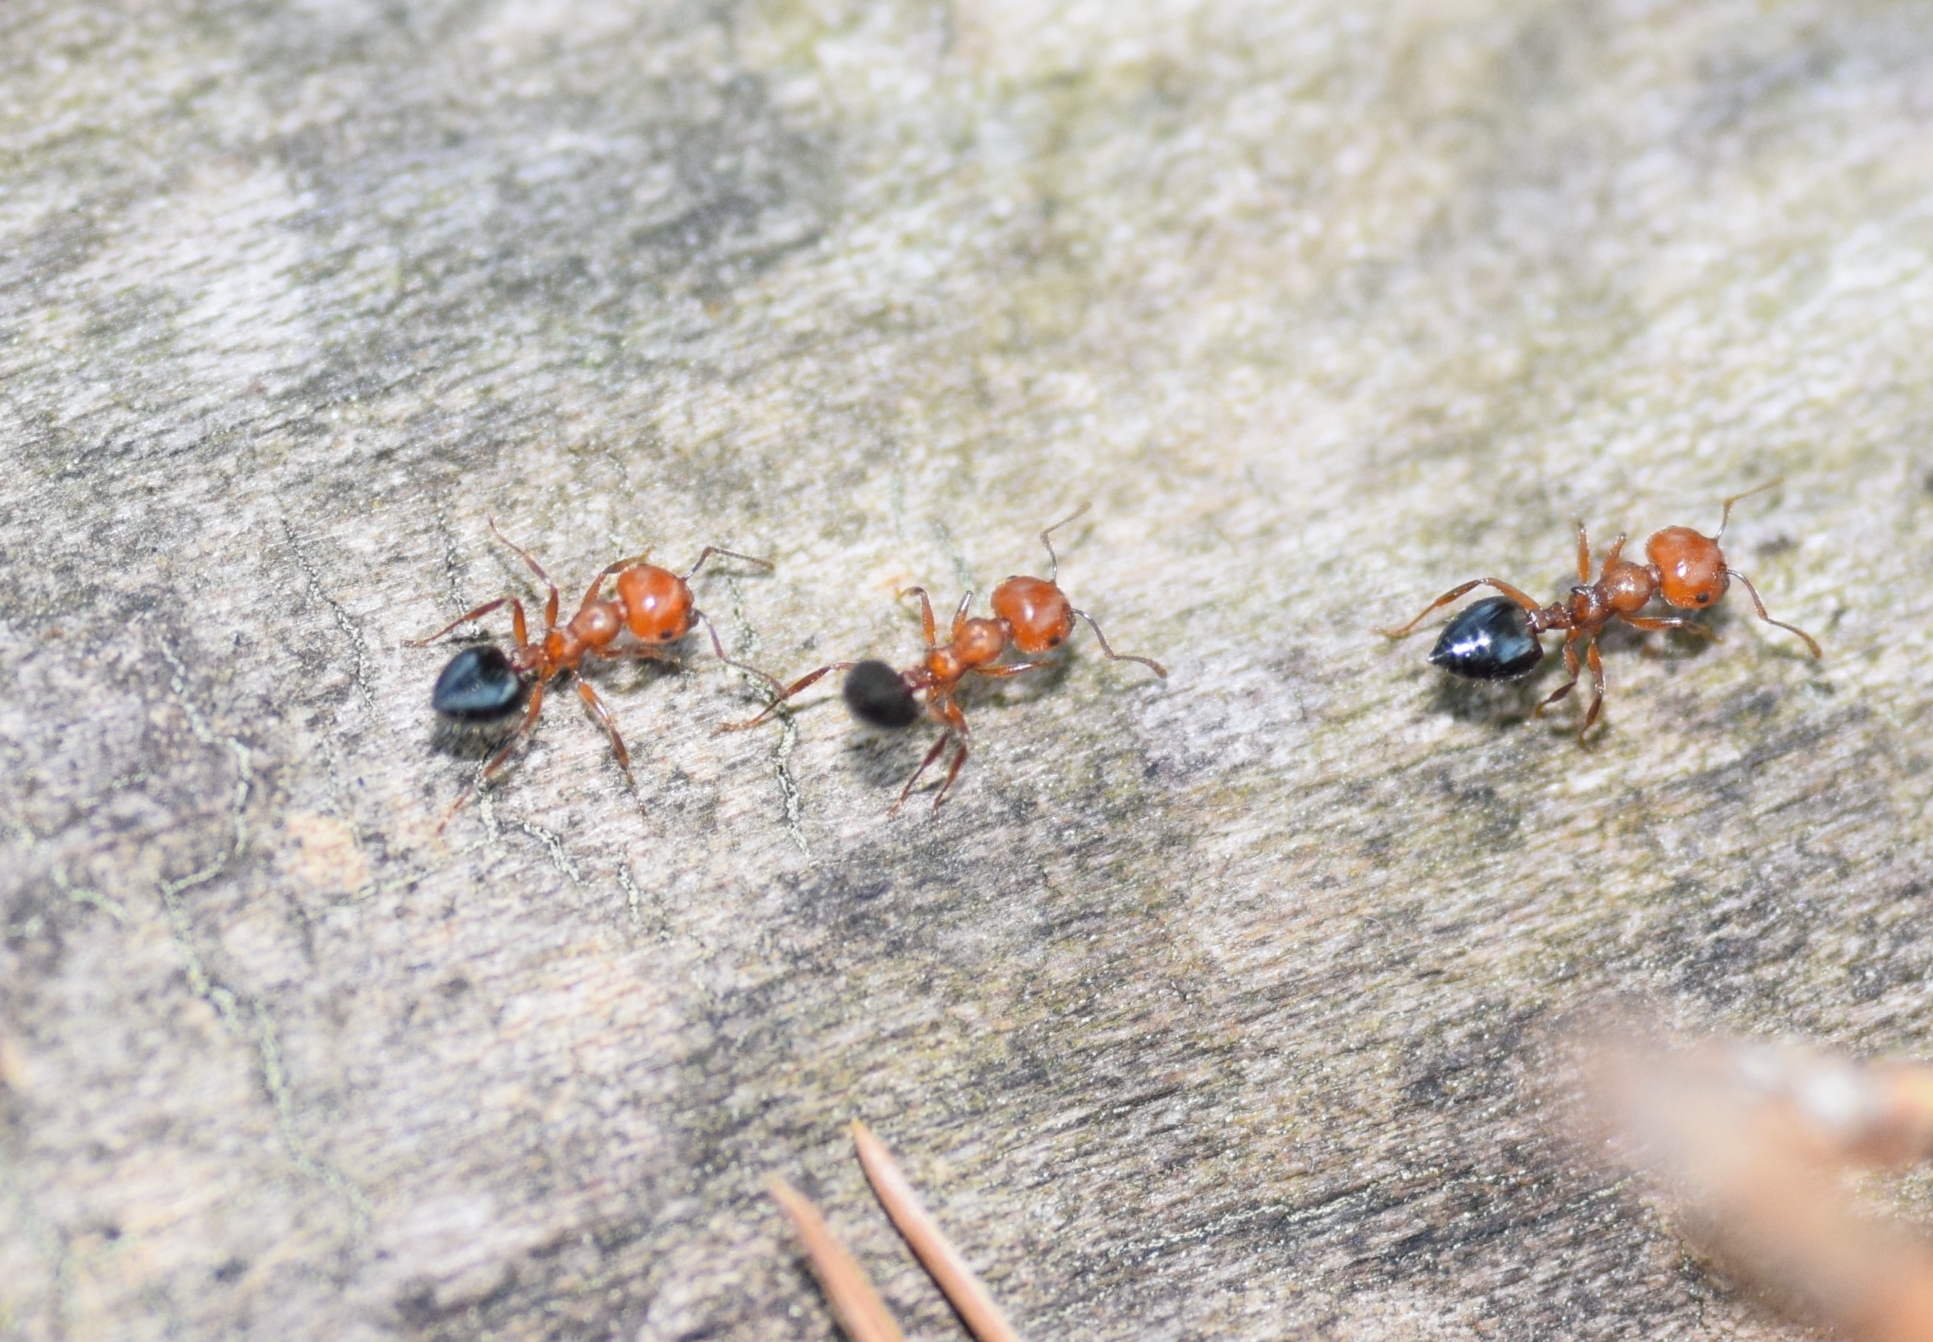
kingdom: Animalia
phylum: Arthropoda
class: Insecta
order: Hymenoptera
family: Formicidae
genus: Crematogaster
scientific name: Crematogaster laeviuscula
